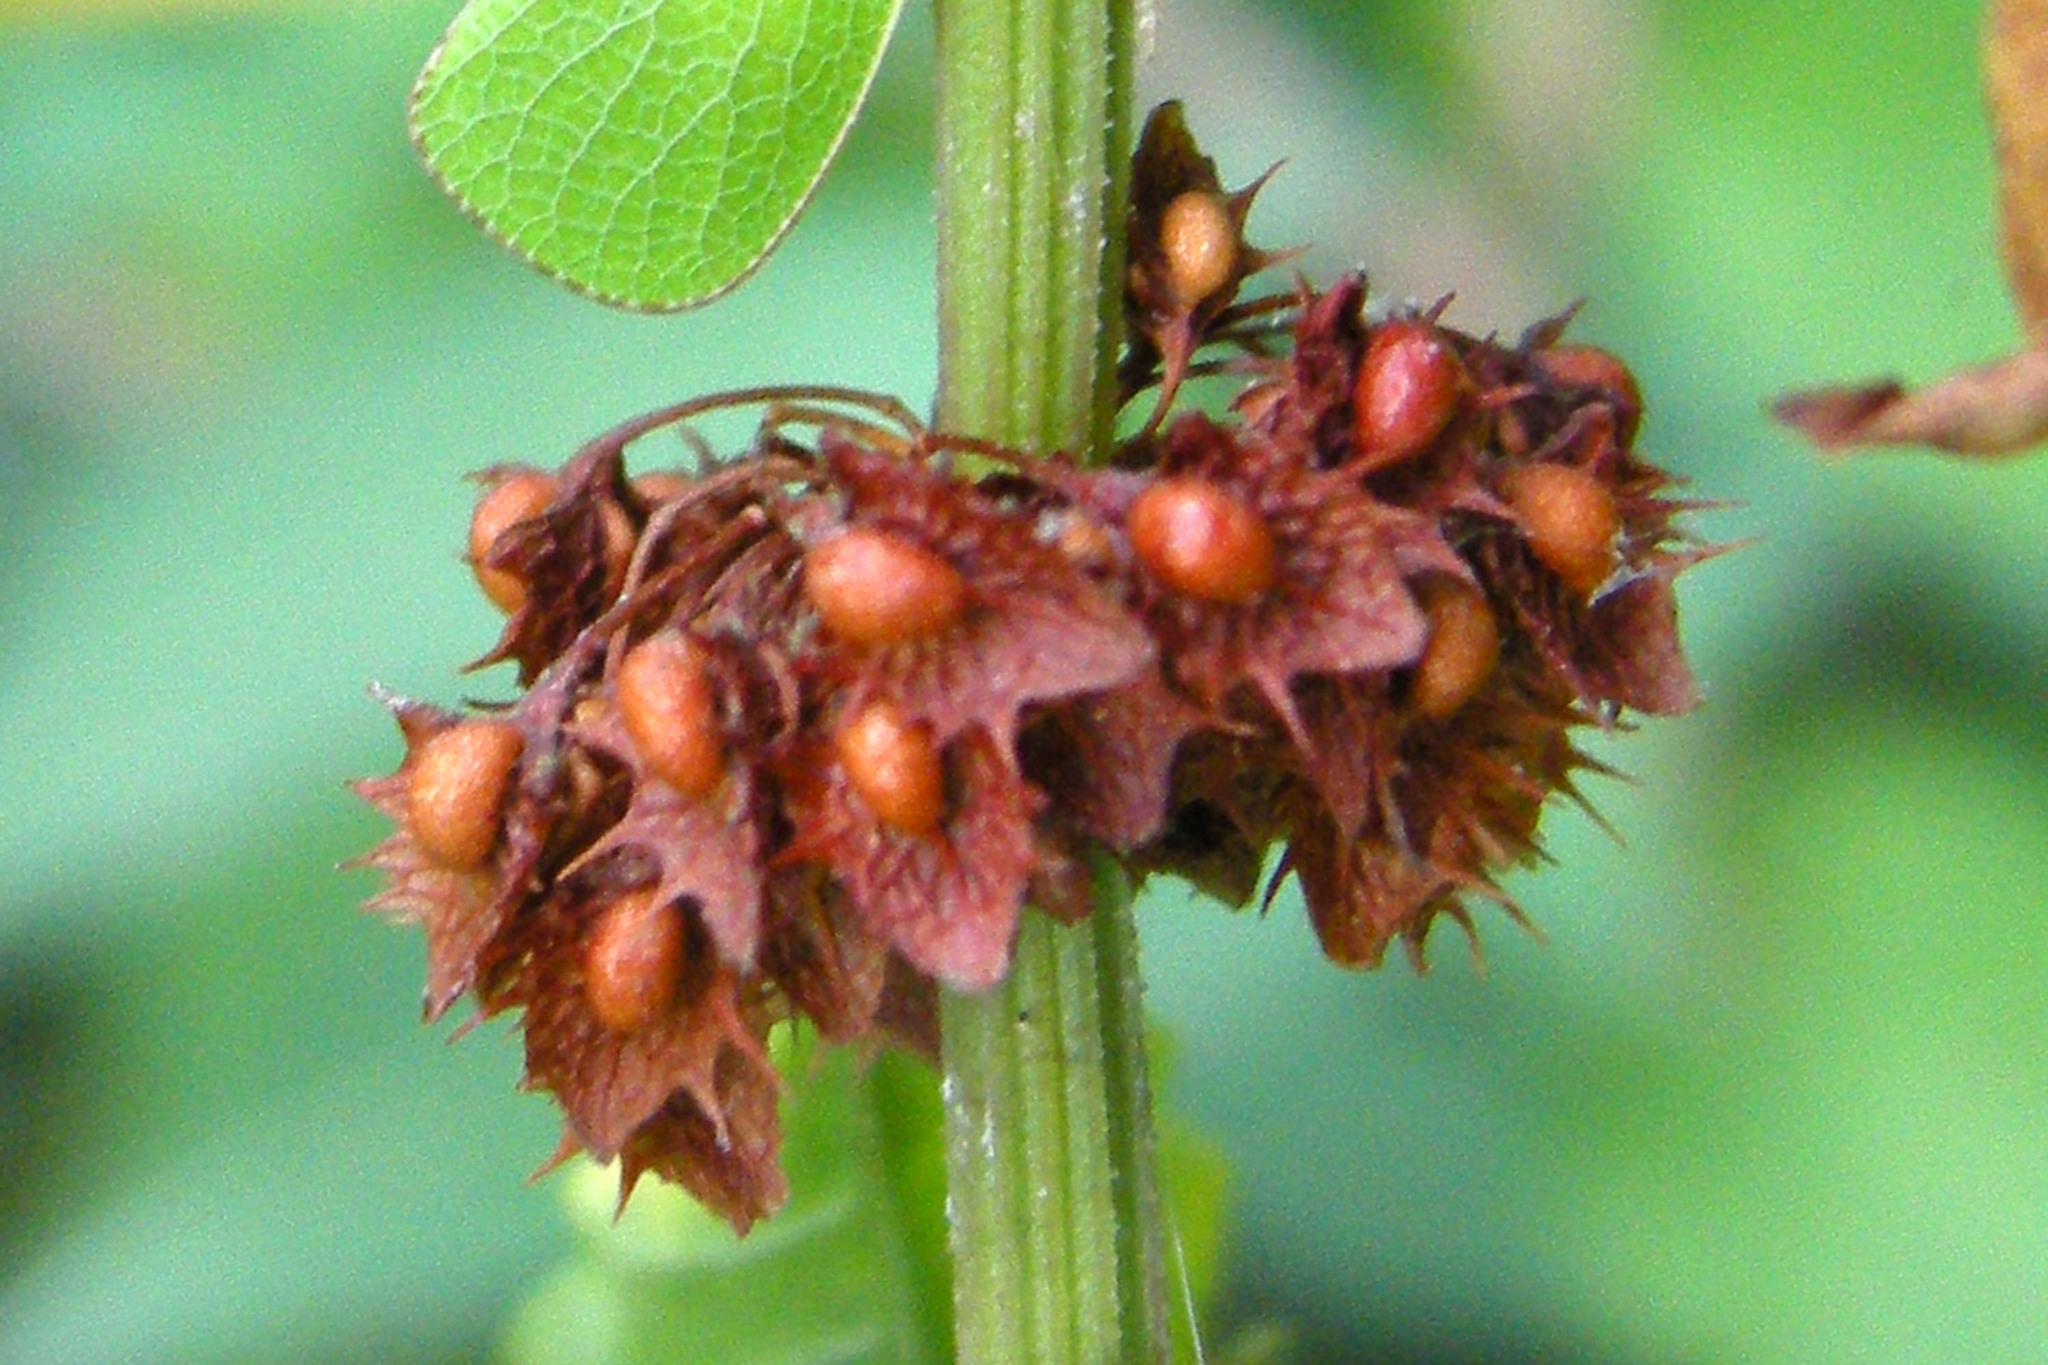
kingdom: Plantae
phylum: Tracheophyta
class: Magnoliopsida
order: Caryophyllales
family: Polygonaceae
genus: Rumex
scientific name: Rumex obtusifolius
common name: Bitter dock
